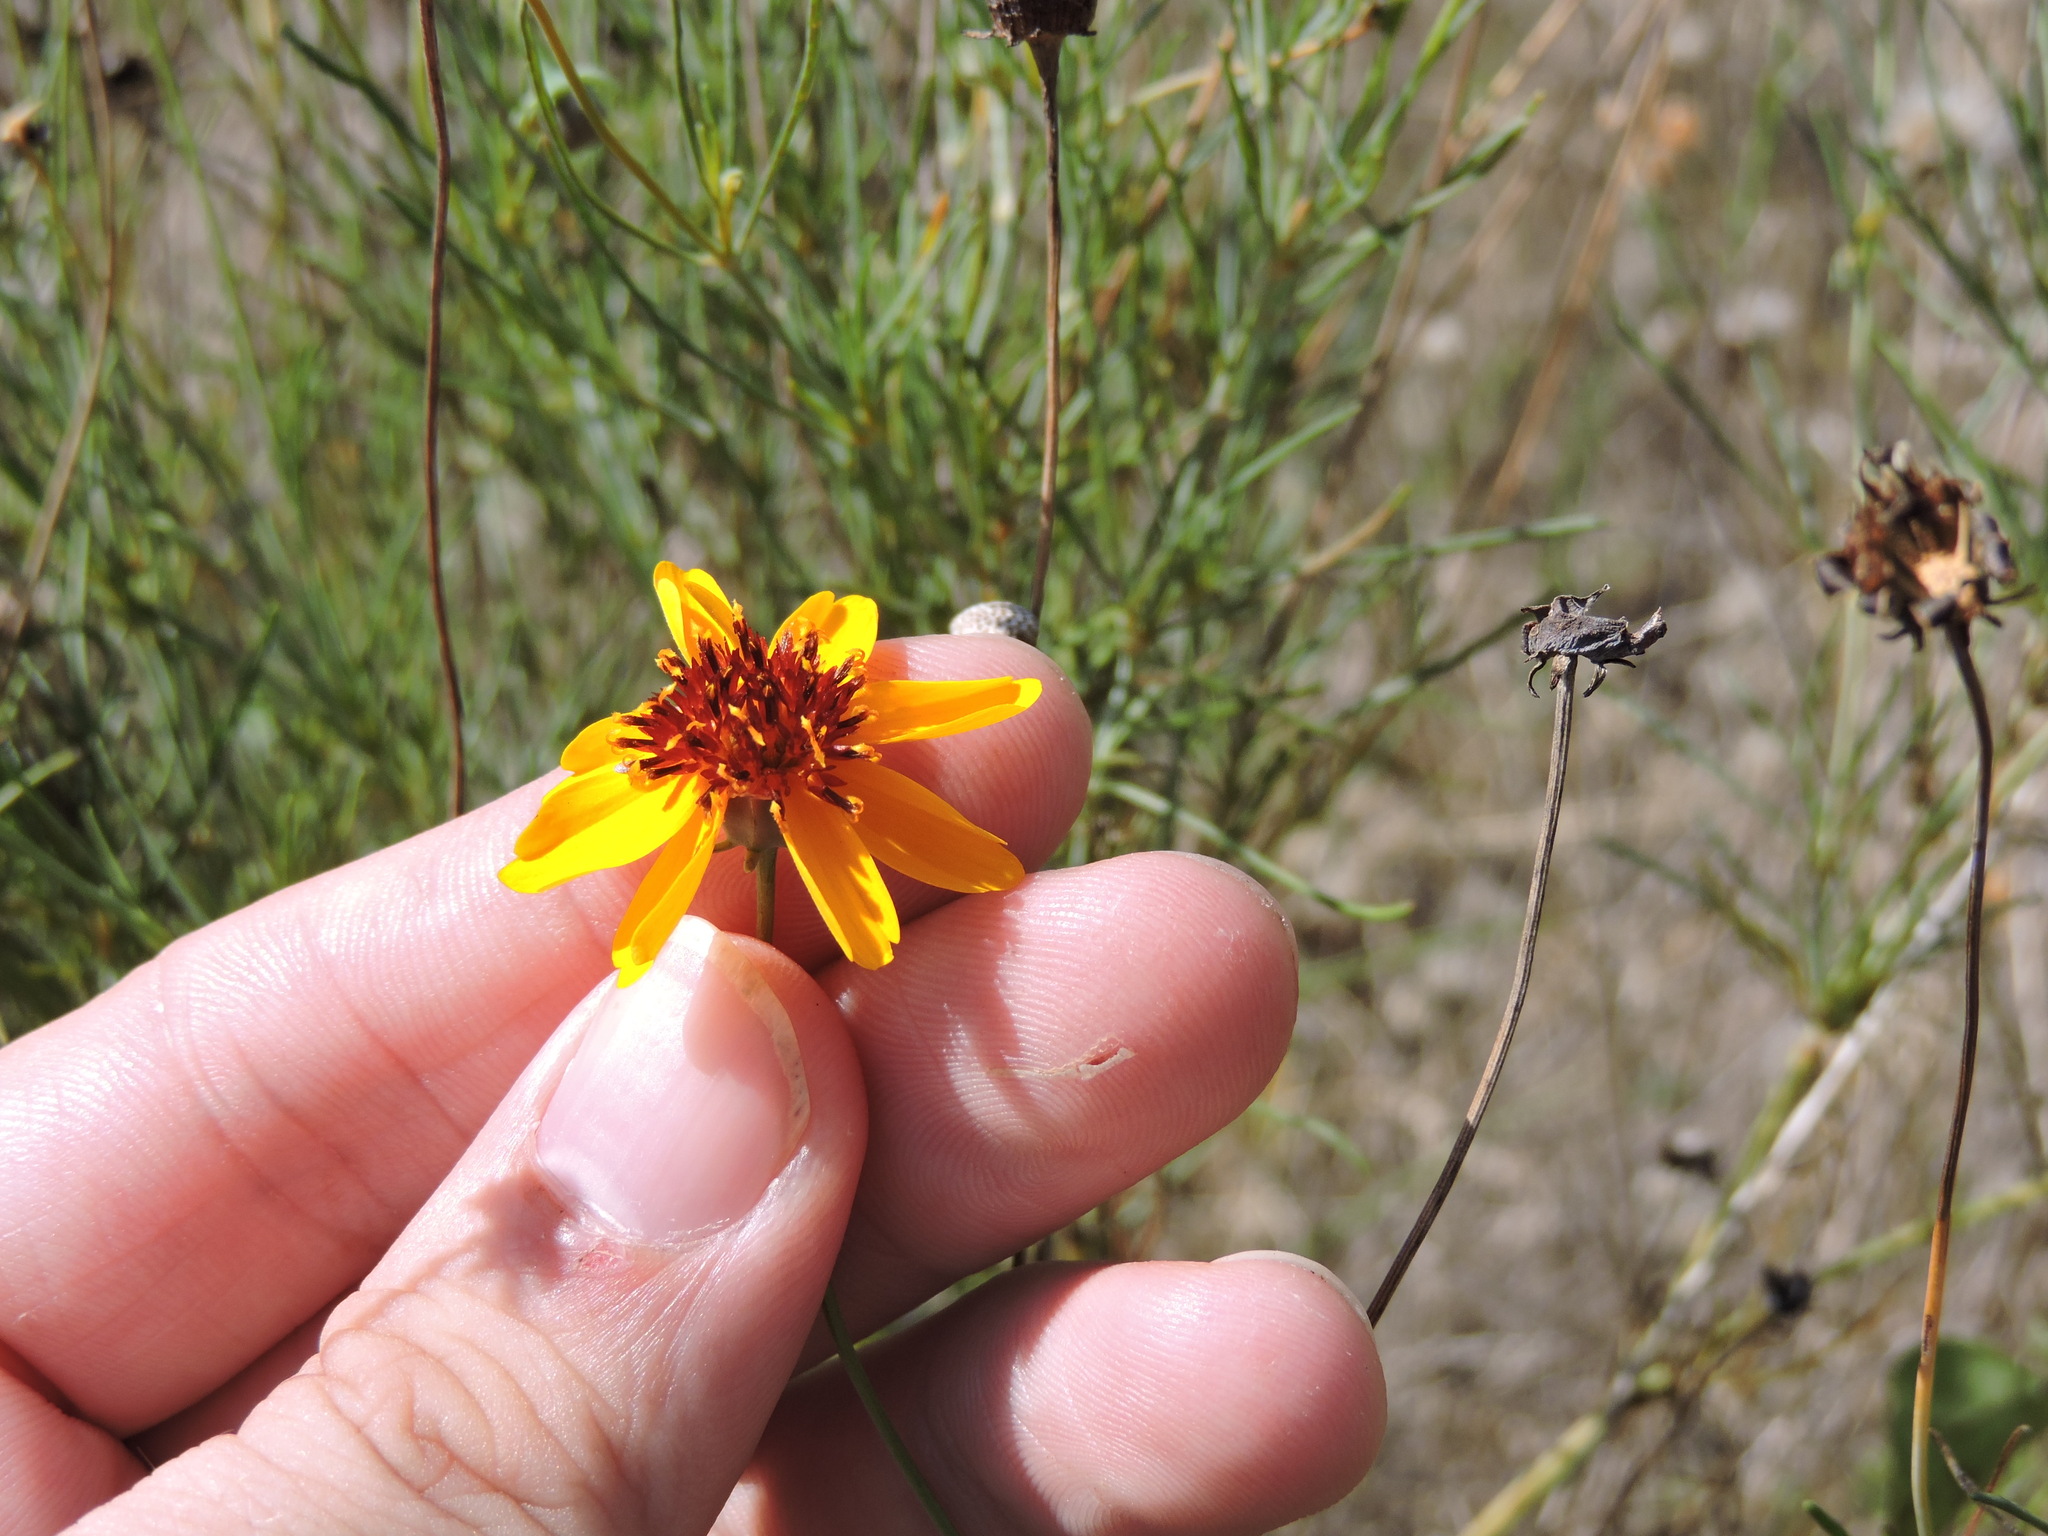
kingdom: Plantae
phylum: Tracheophyta
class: Magnoliopsida
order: Asterales
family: Asteraceae
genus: Thelesperma
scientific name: Thelesperma filifolium
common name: Stiff greenthread
